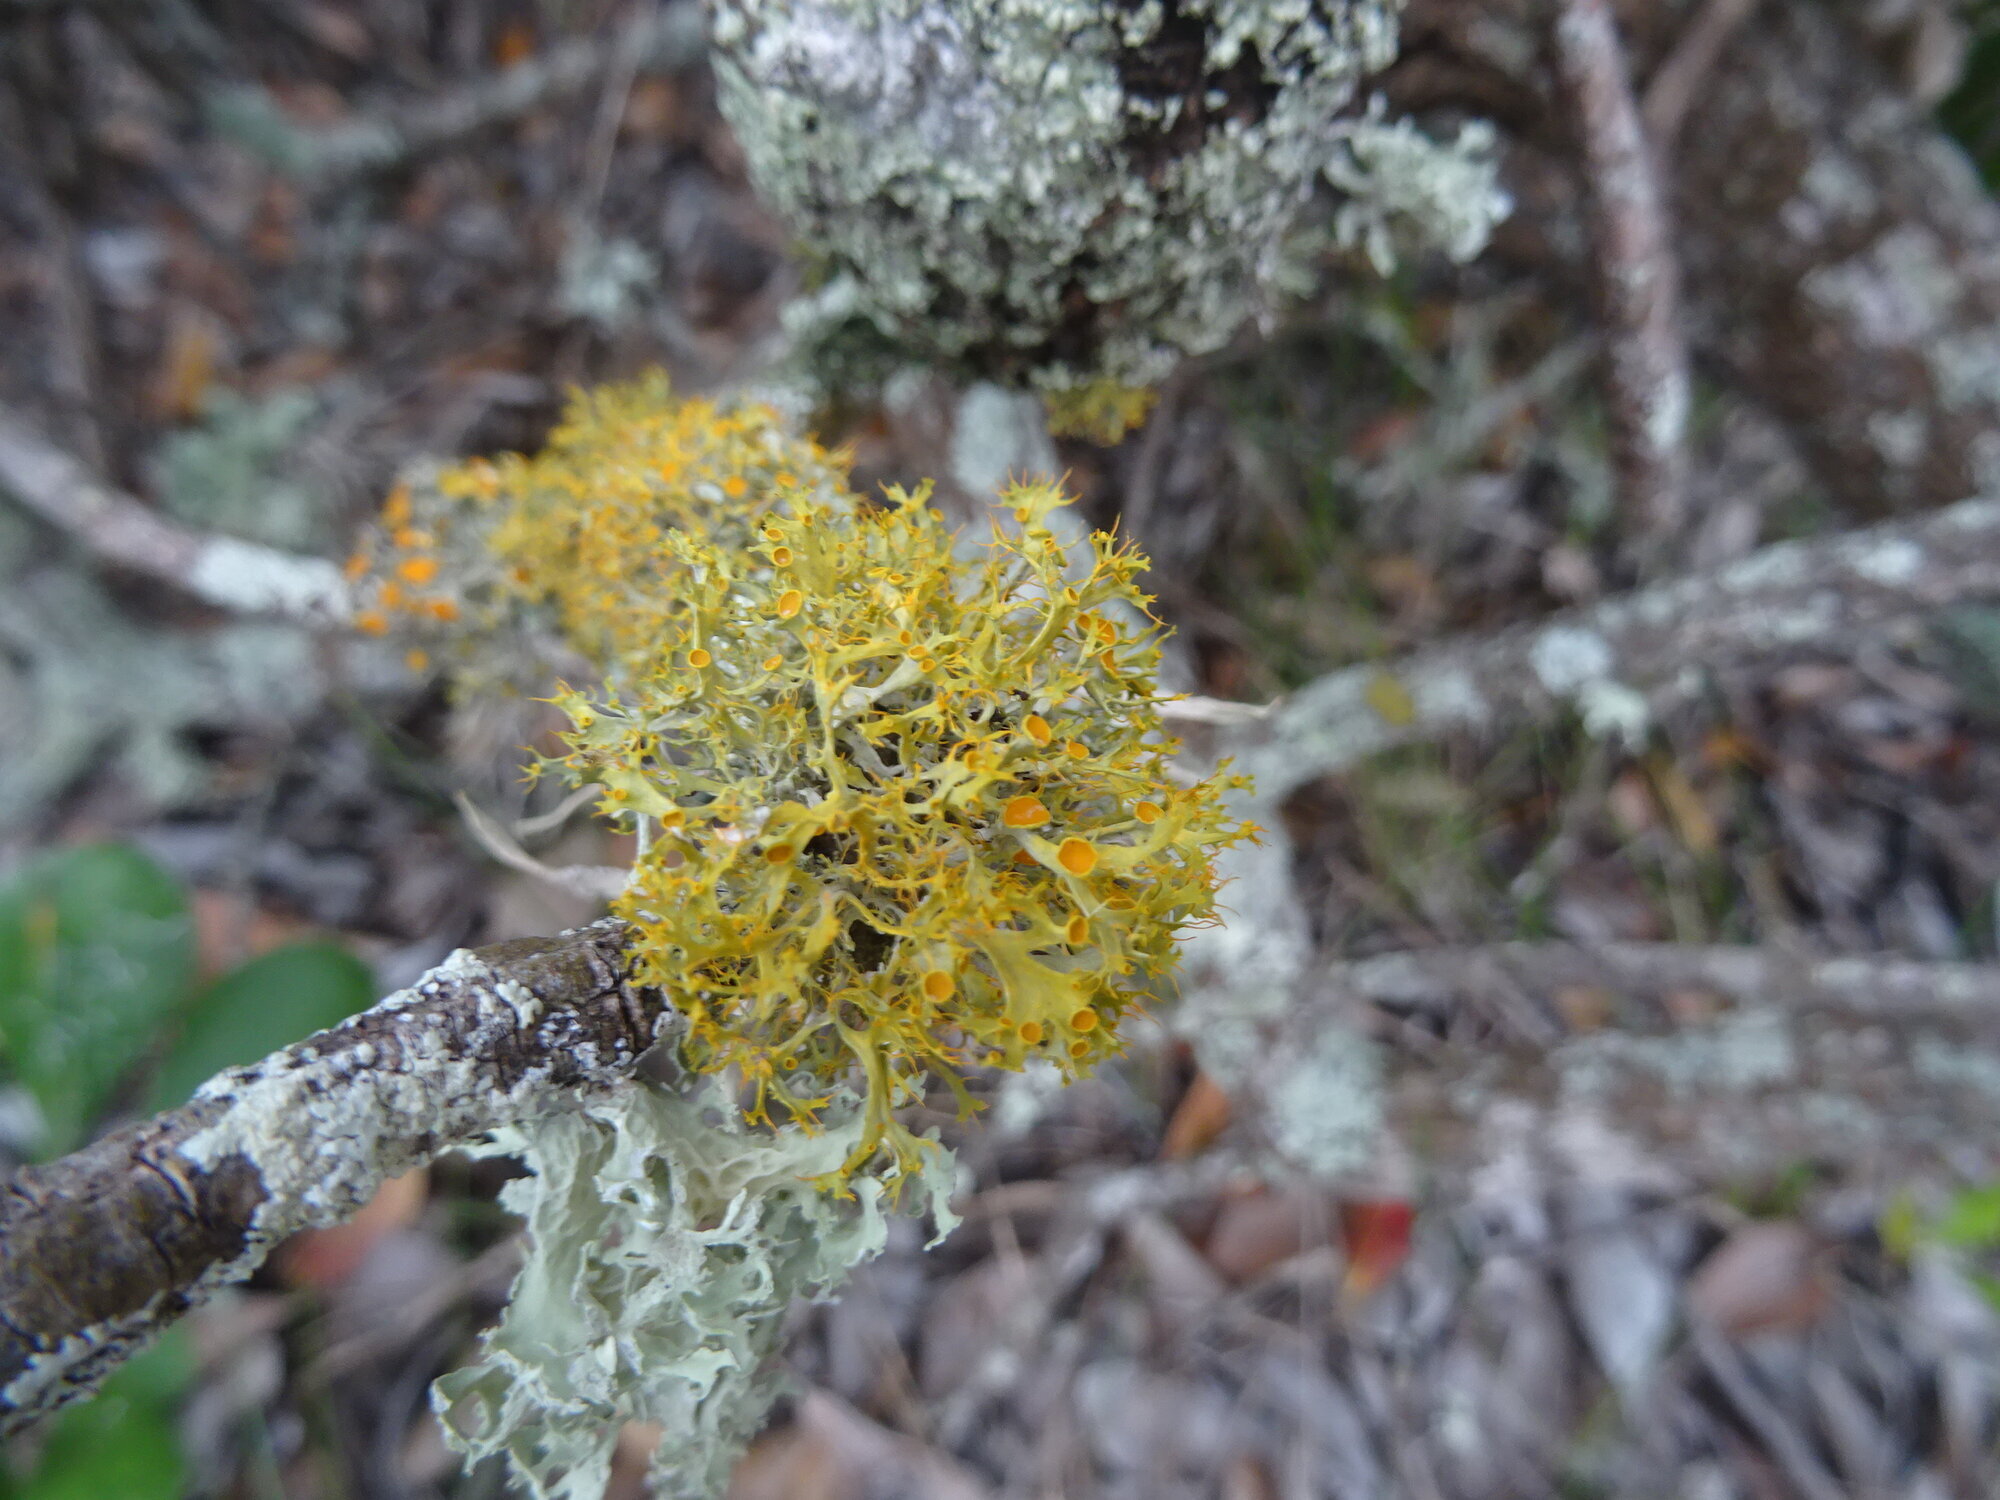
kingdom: Fungi
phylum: Ascomycota
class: Lecanoromycetes
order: Teloschistales
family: Teloschistaceae
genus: Teloschistes
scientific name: Teloschistes pulvinaris
